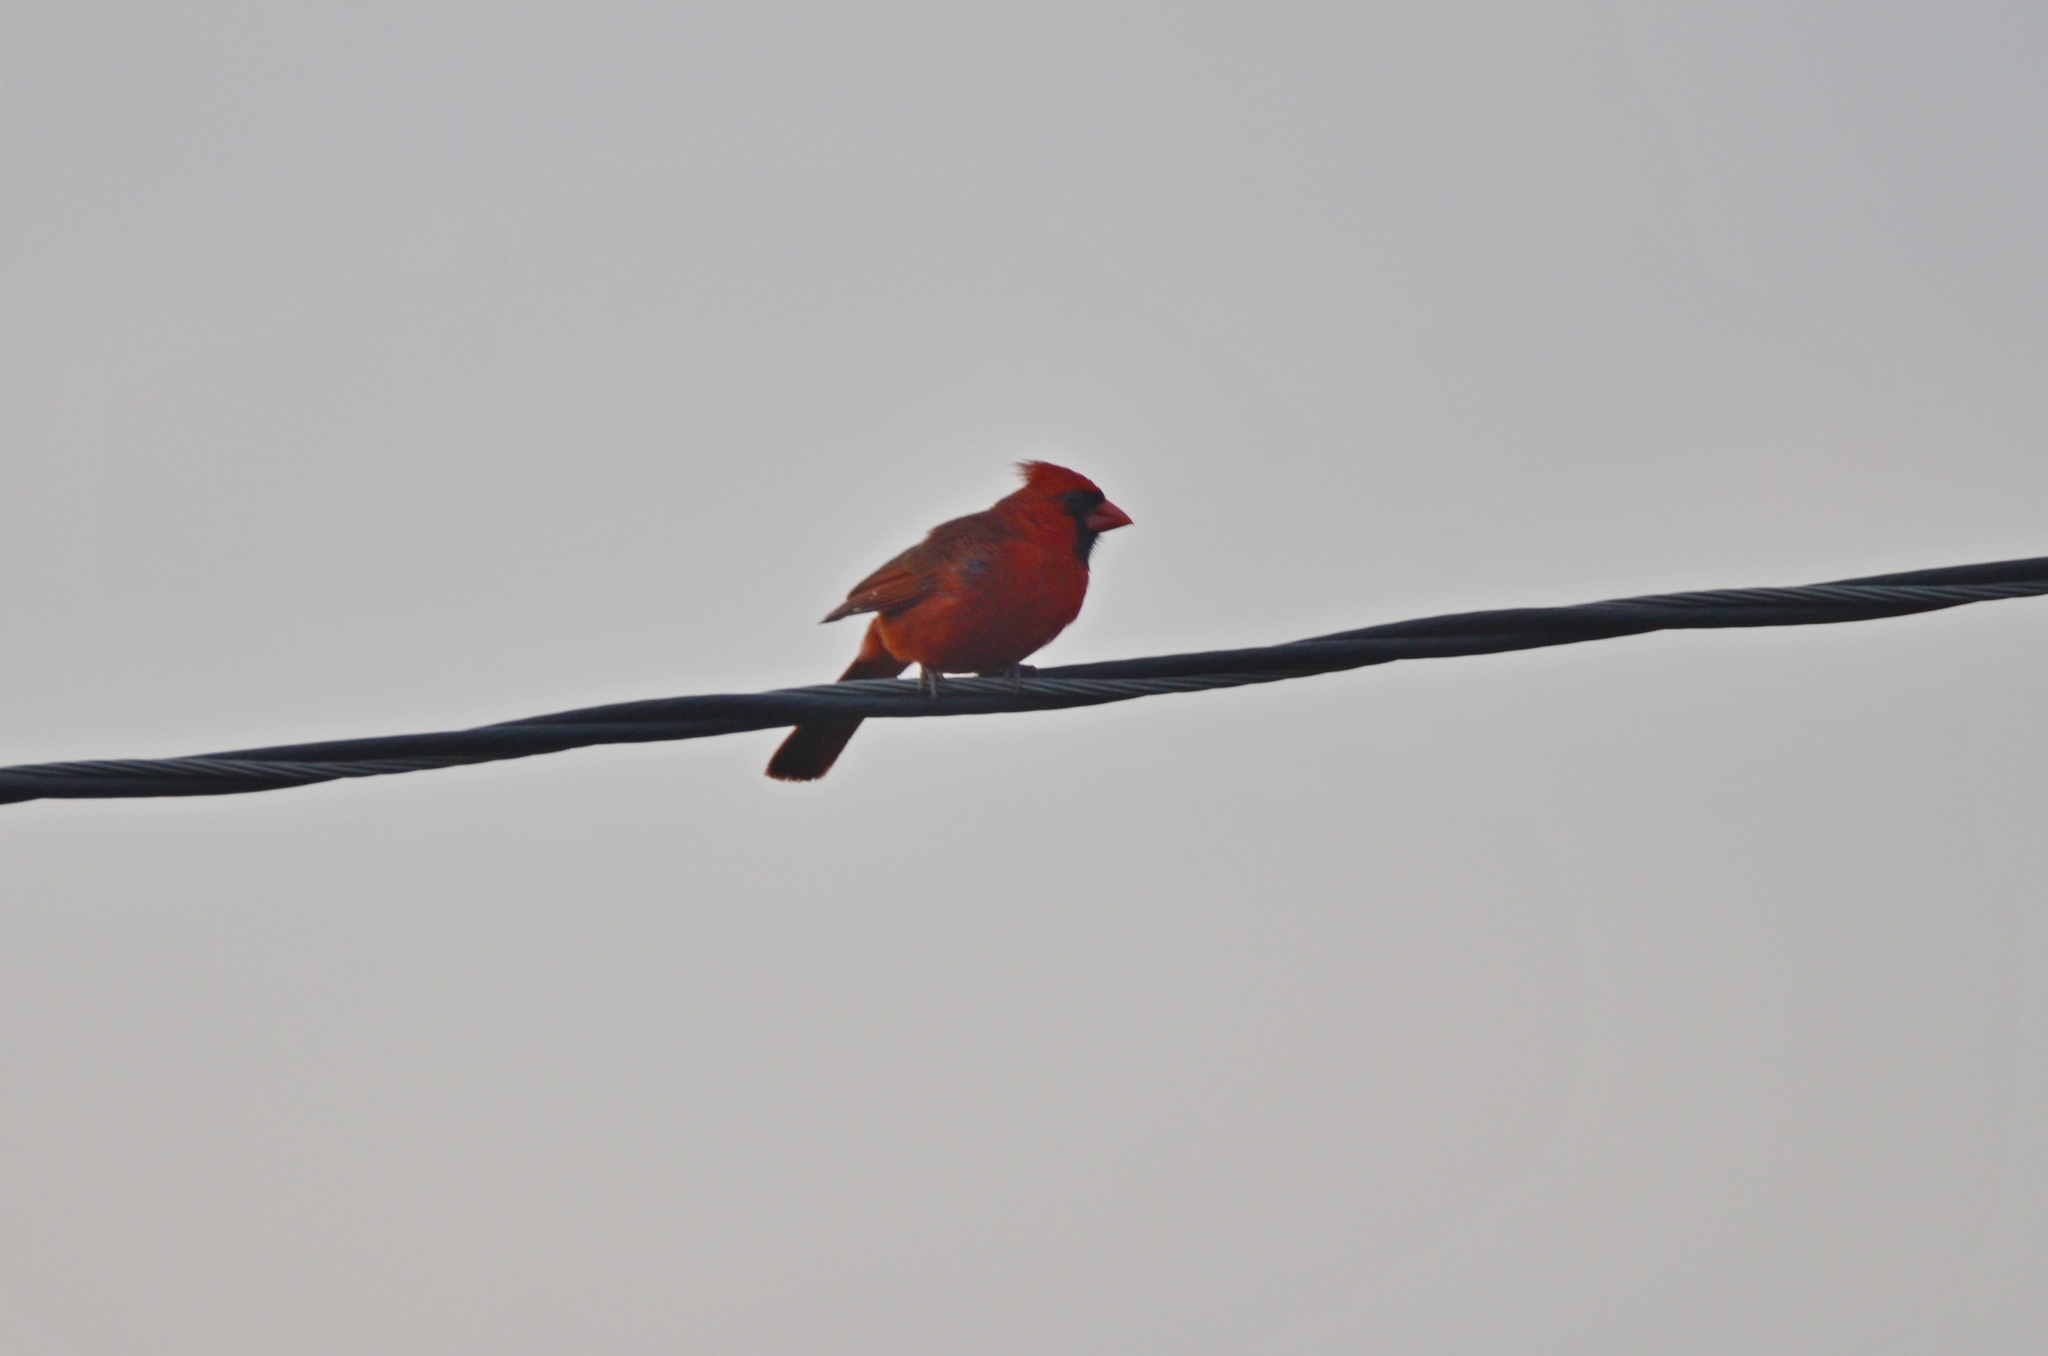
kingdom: Animalia
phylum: Chordata
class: Aves
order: Passeriformes
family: Cardinalidae
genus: Cardinalis
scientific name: Cardinalis cardinalis
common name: Northern cardinal
